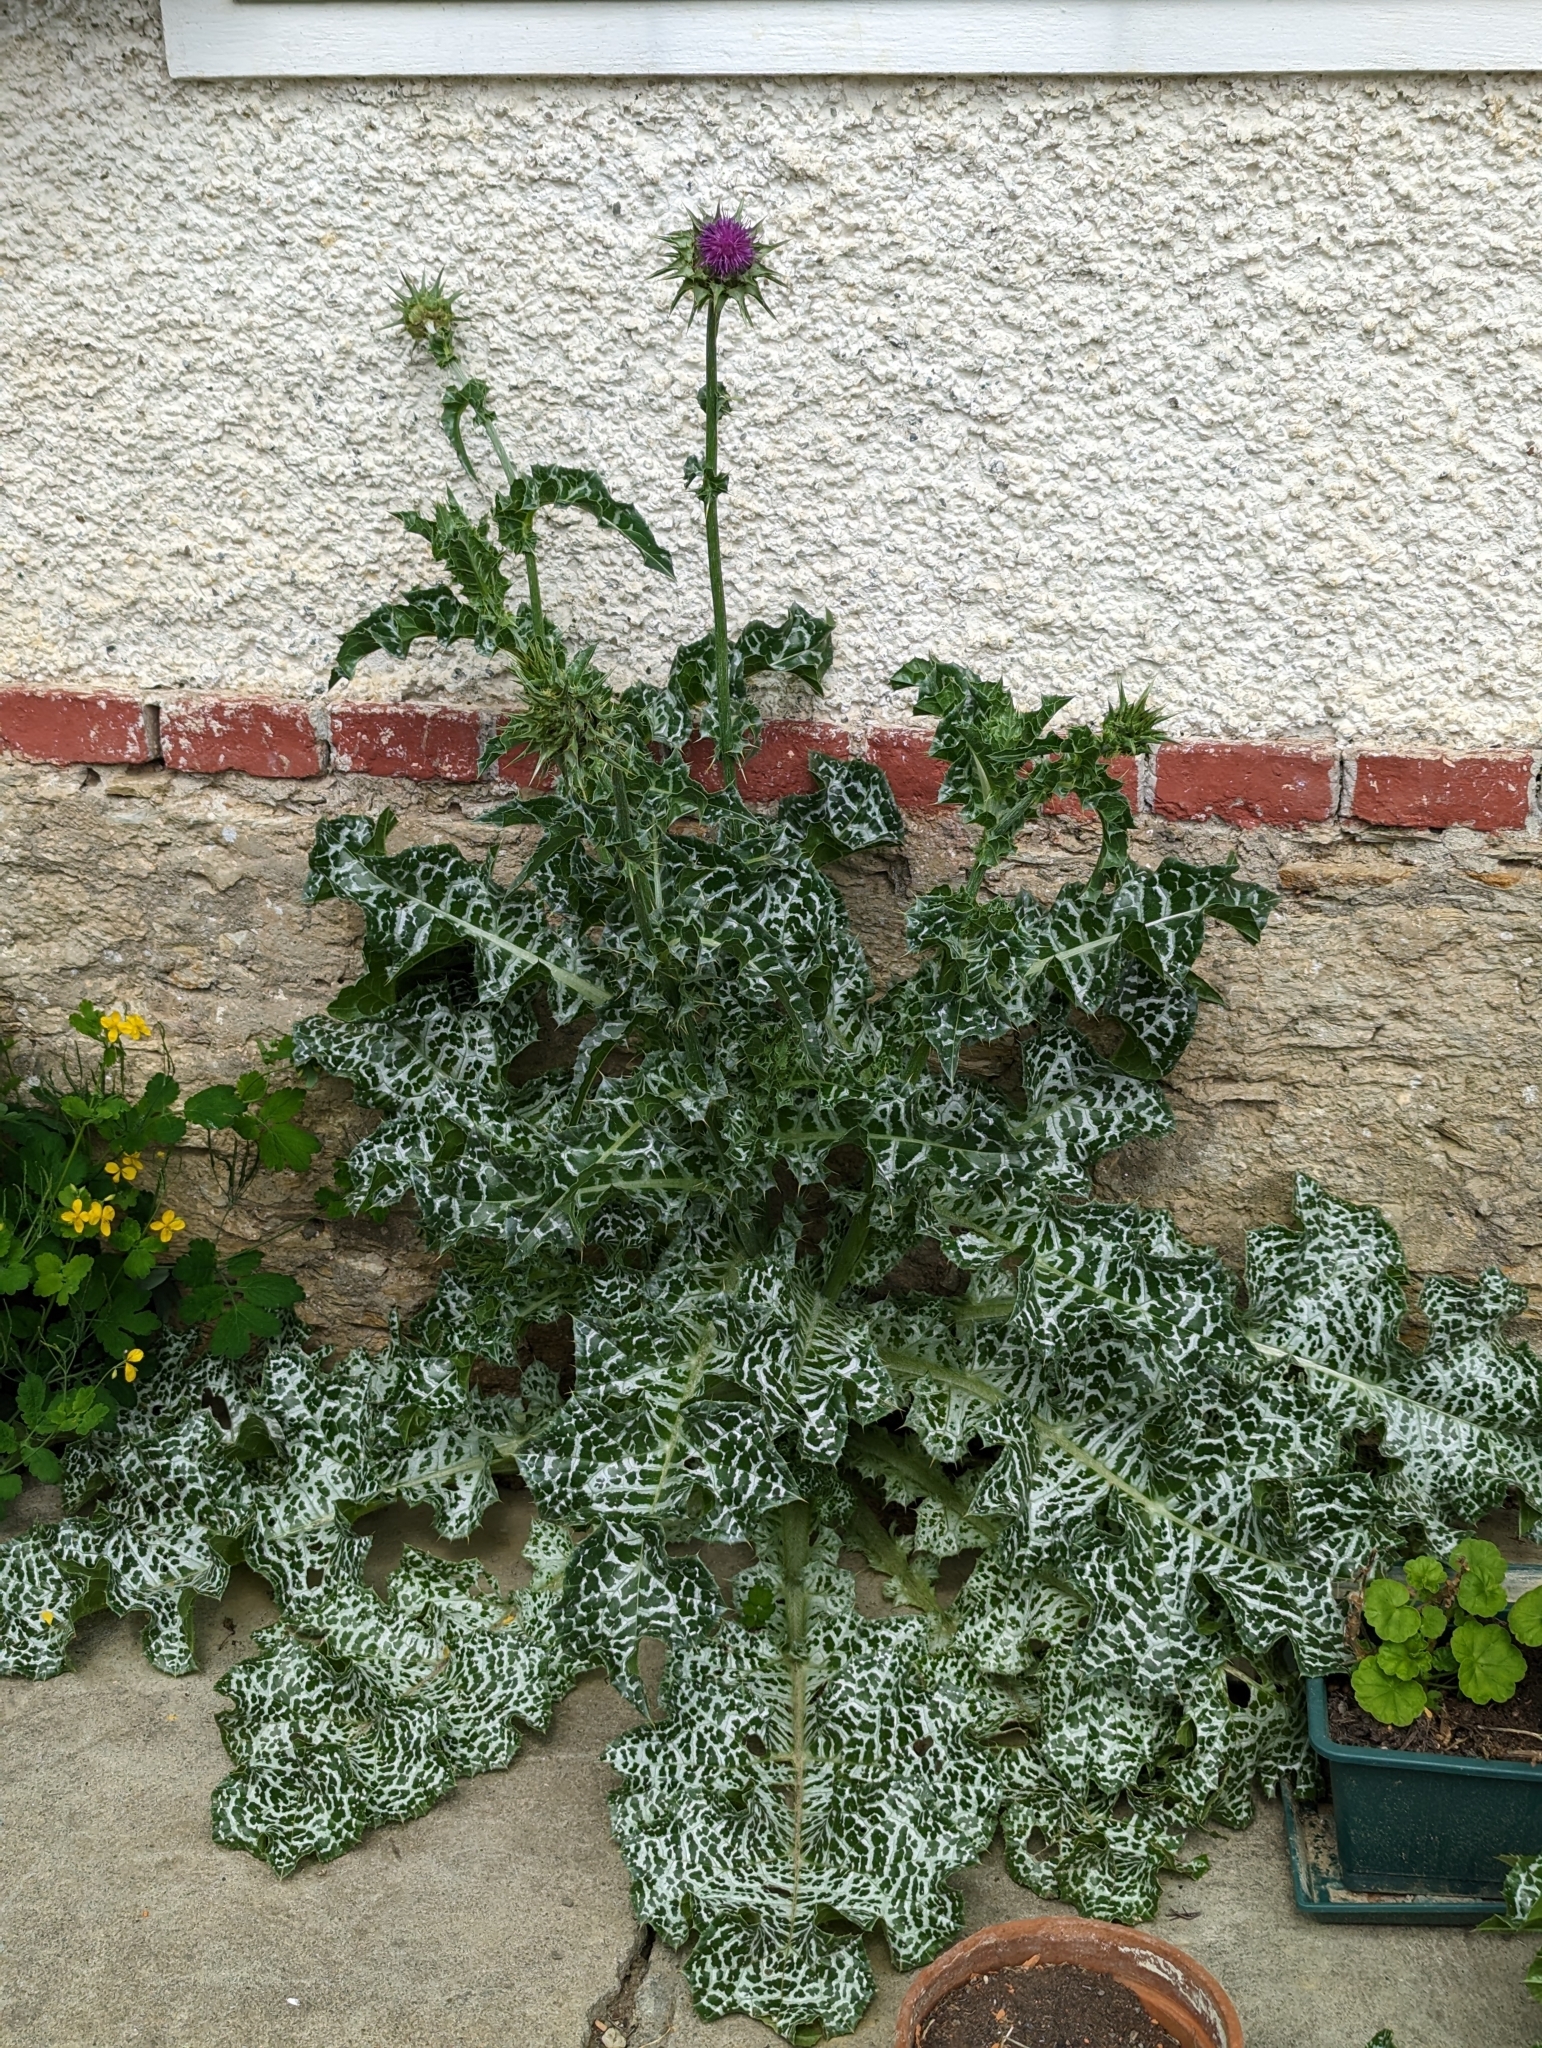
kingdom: Plantae
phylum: Tracheophyta
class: Magnoliopsida
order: Asterales
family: Asteraceae
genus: Silybum
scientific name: Silybum marianum
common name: Milk thistle
